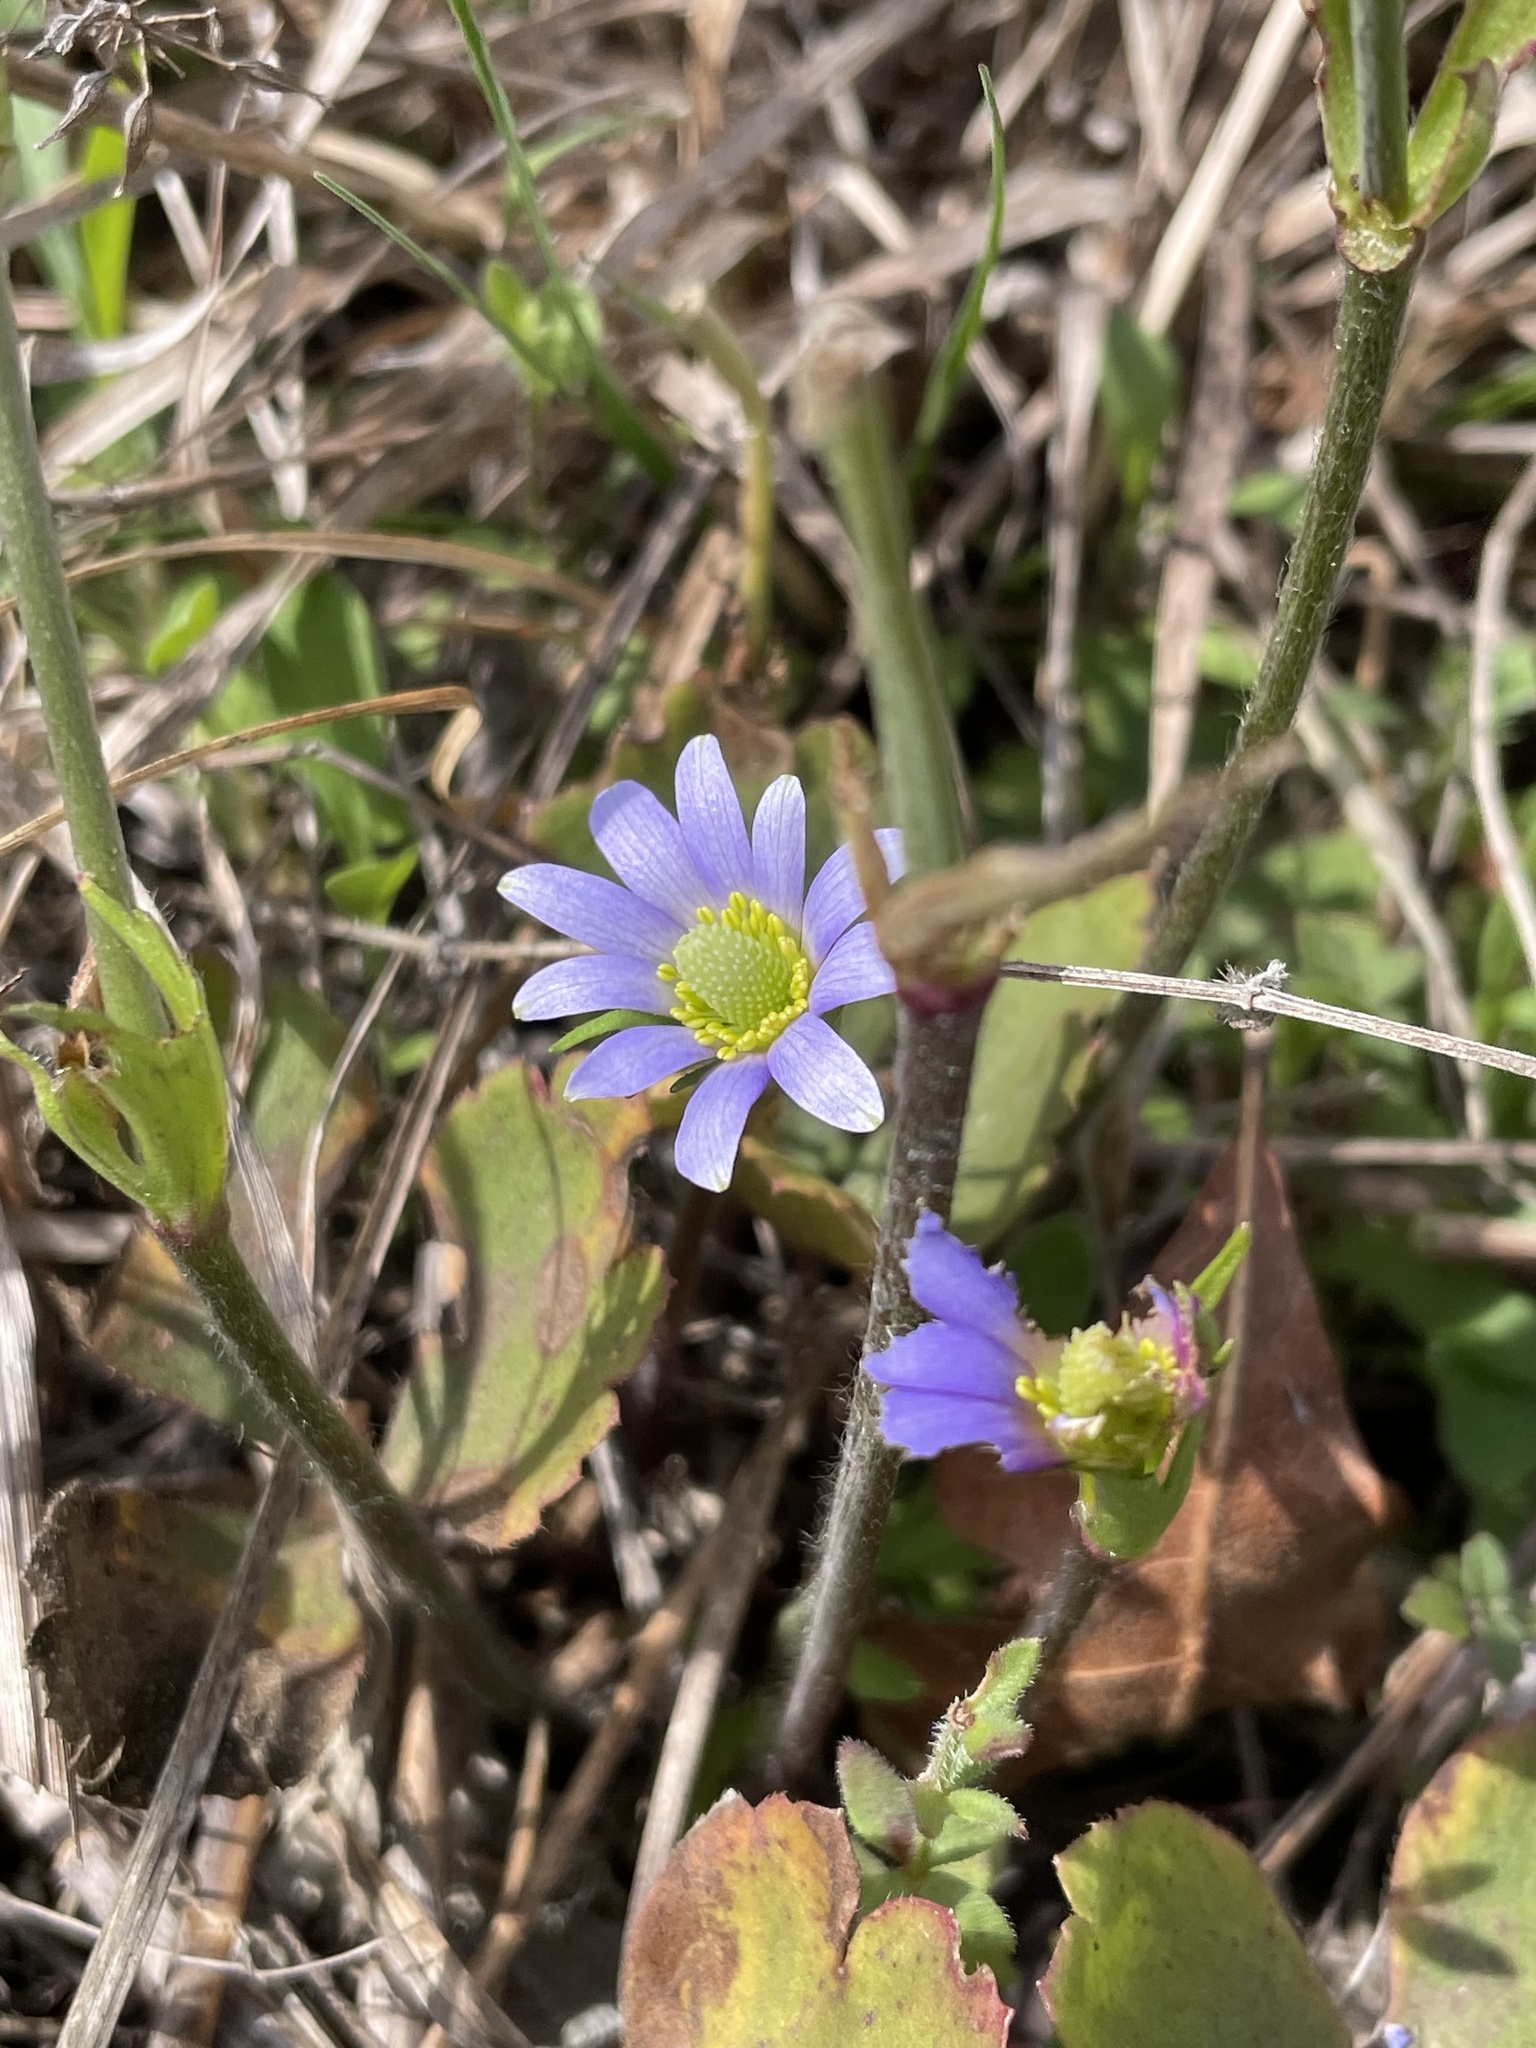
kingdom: Plantae
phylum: Tracheophyta
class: Magnoliopsida
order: Ranunculales
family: Ranunculaceae
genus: Anemone
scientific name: Anemone berlandieri
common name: Ten-petal anemone
